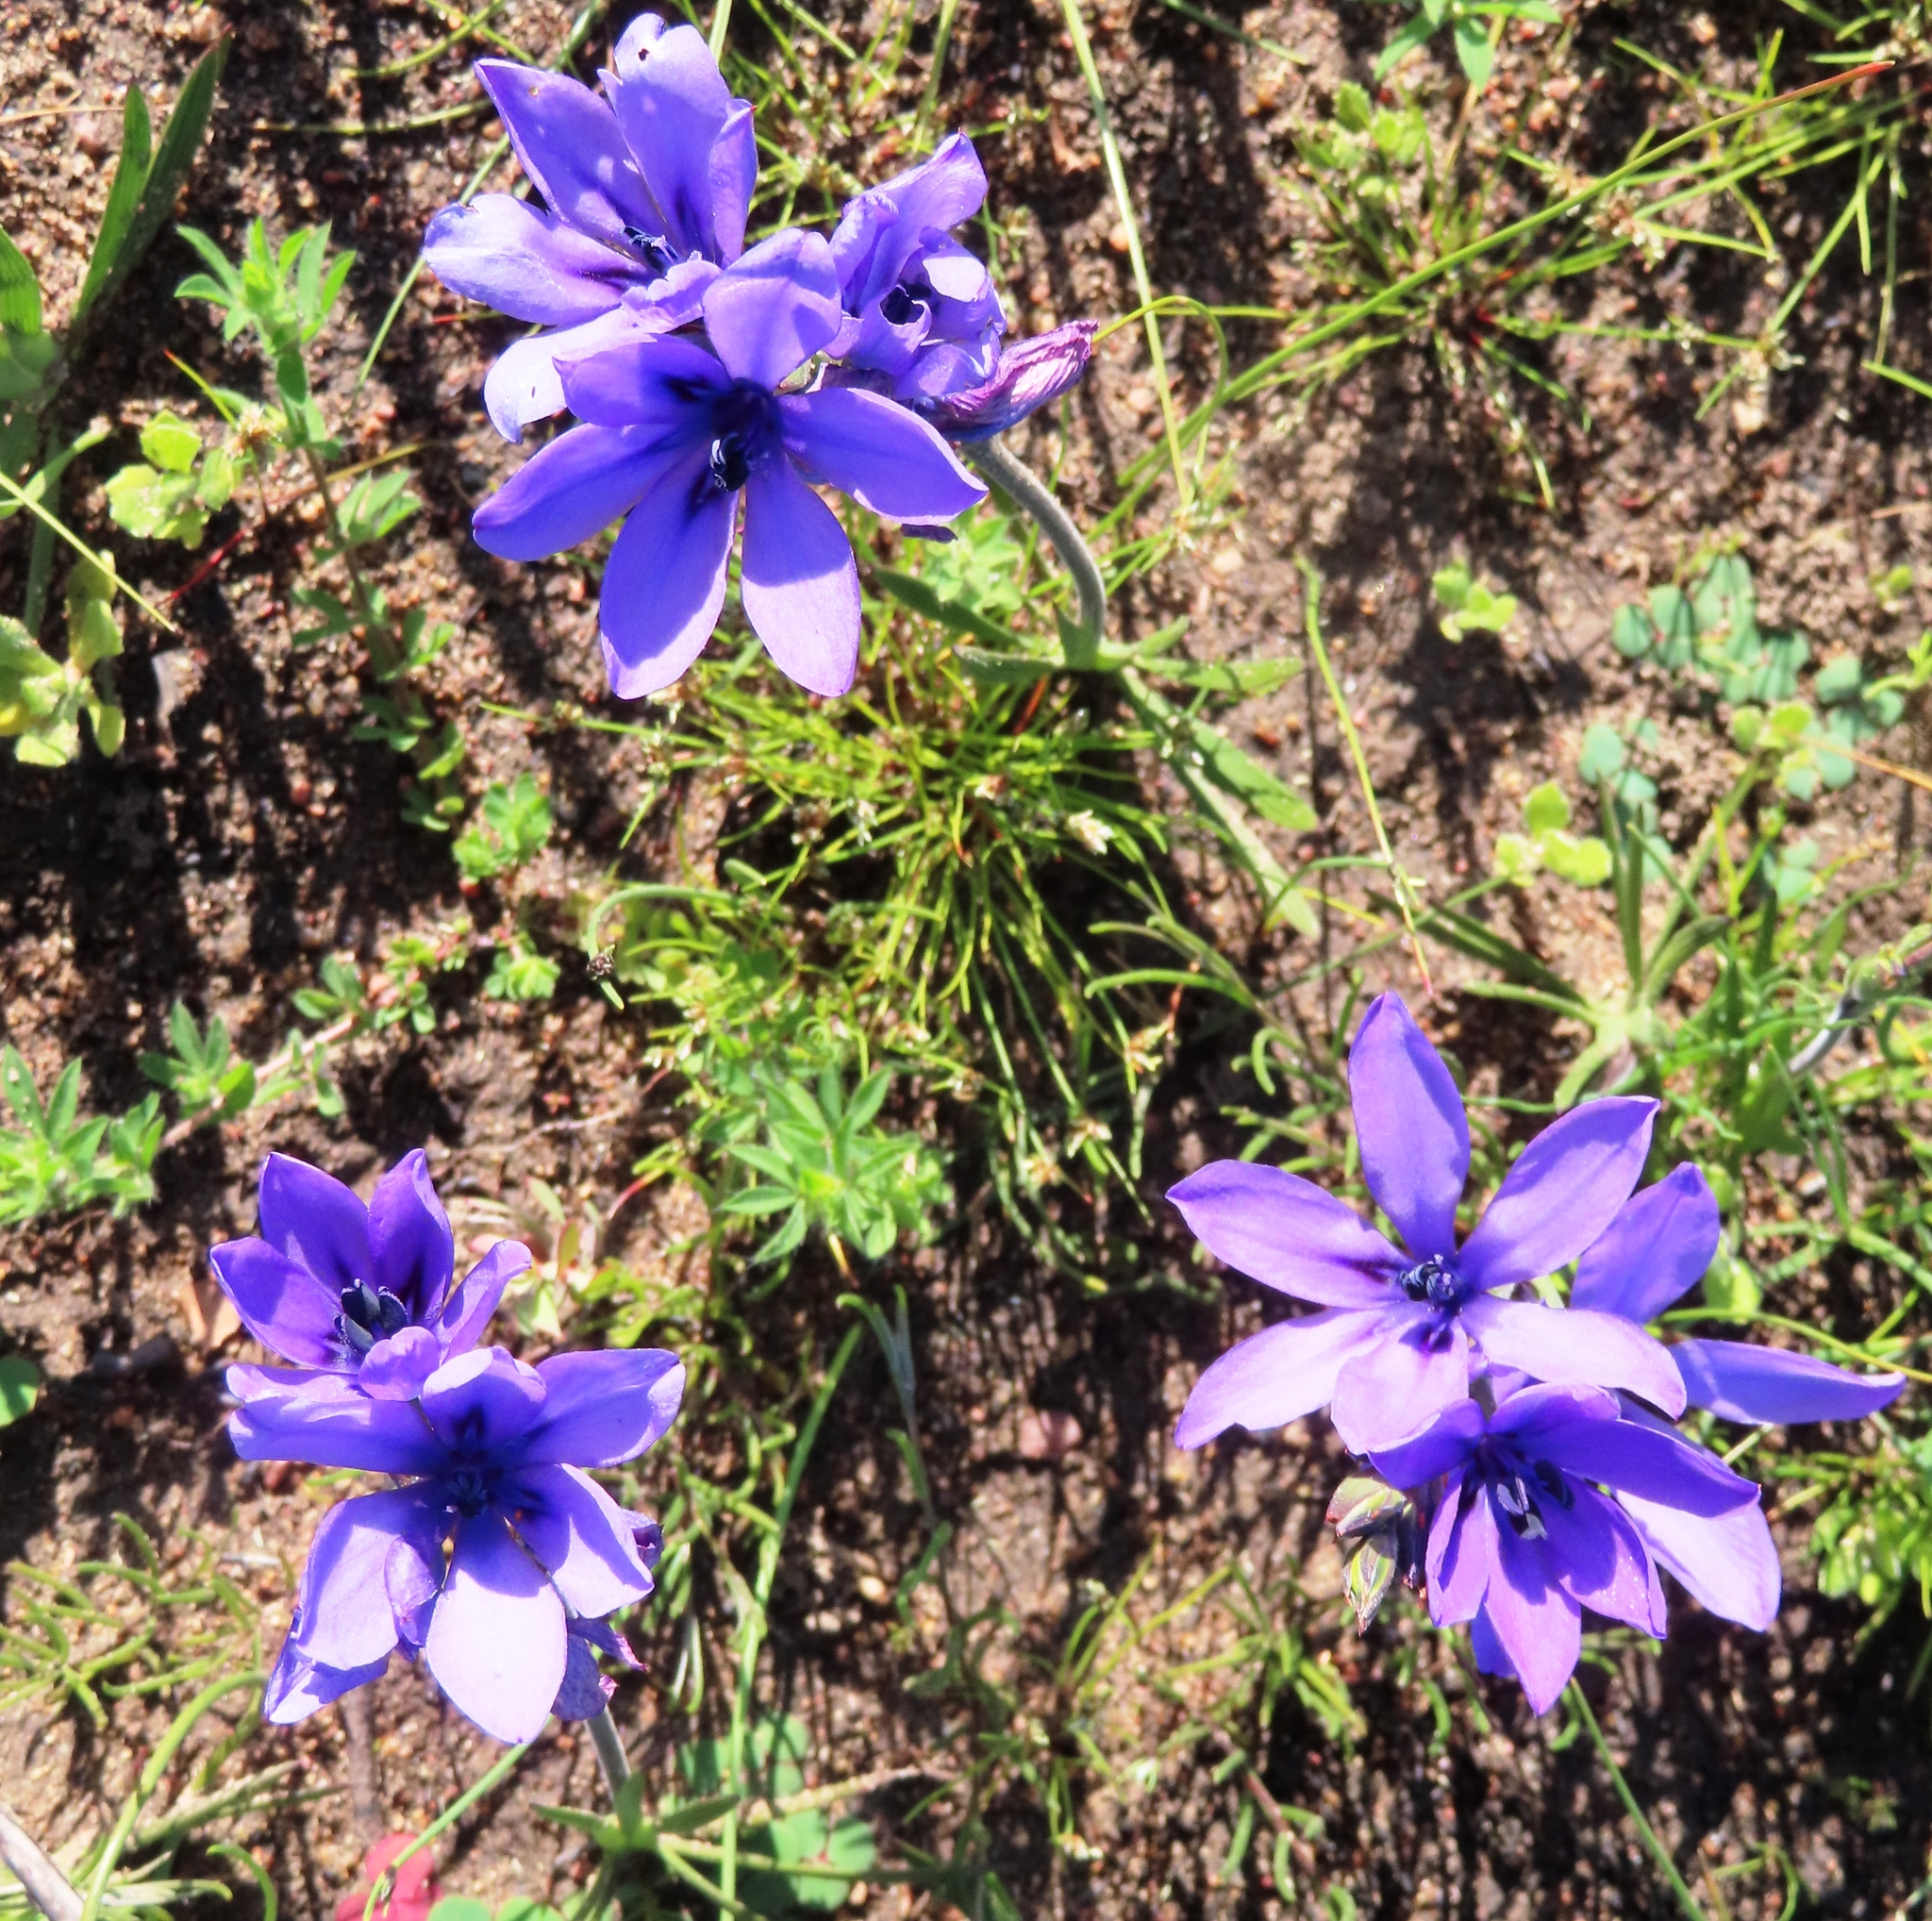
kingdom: Plantae
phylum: Tracheophyta
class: Liliopsida
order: Asparagales
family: Iridaceae
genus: Babiana
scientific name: Babiana angustifolia
